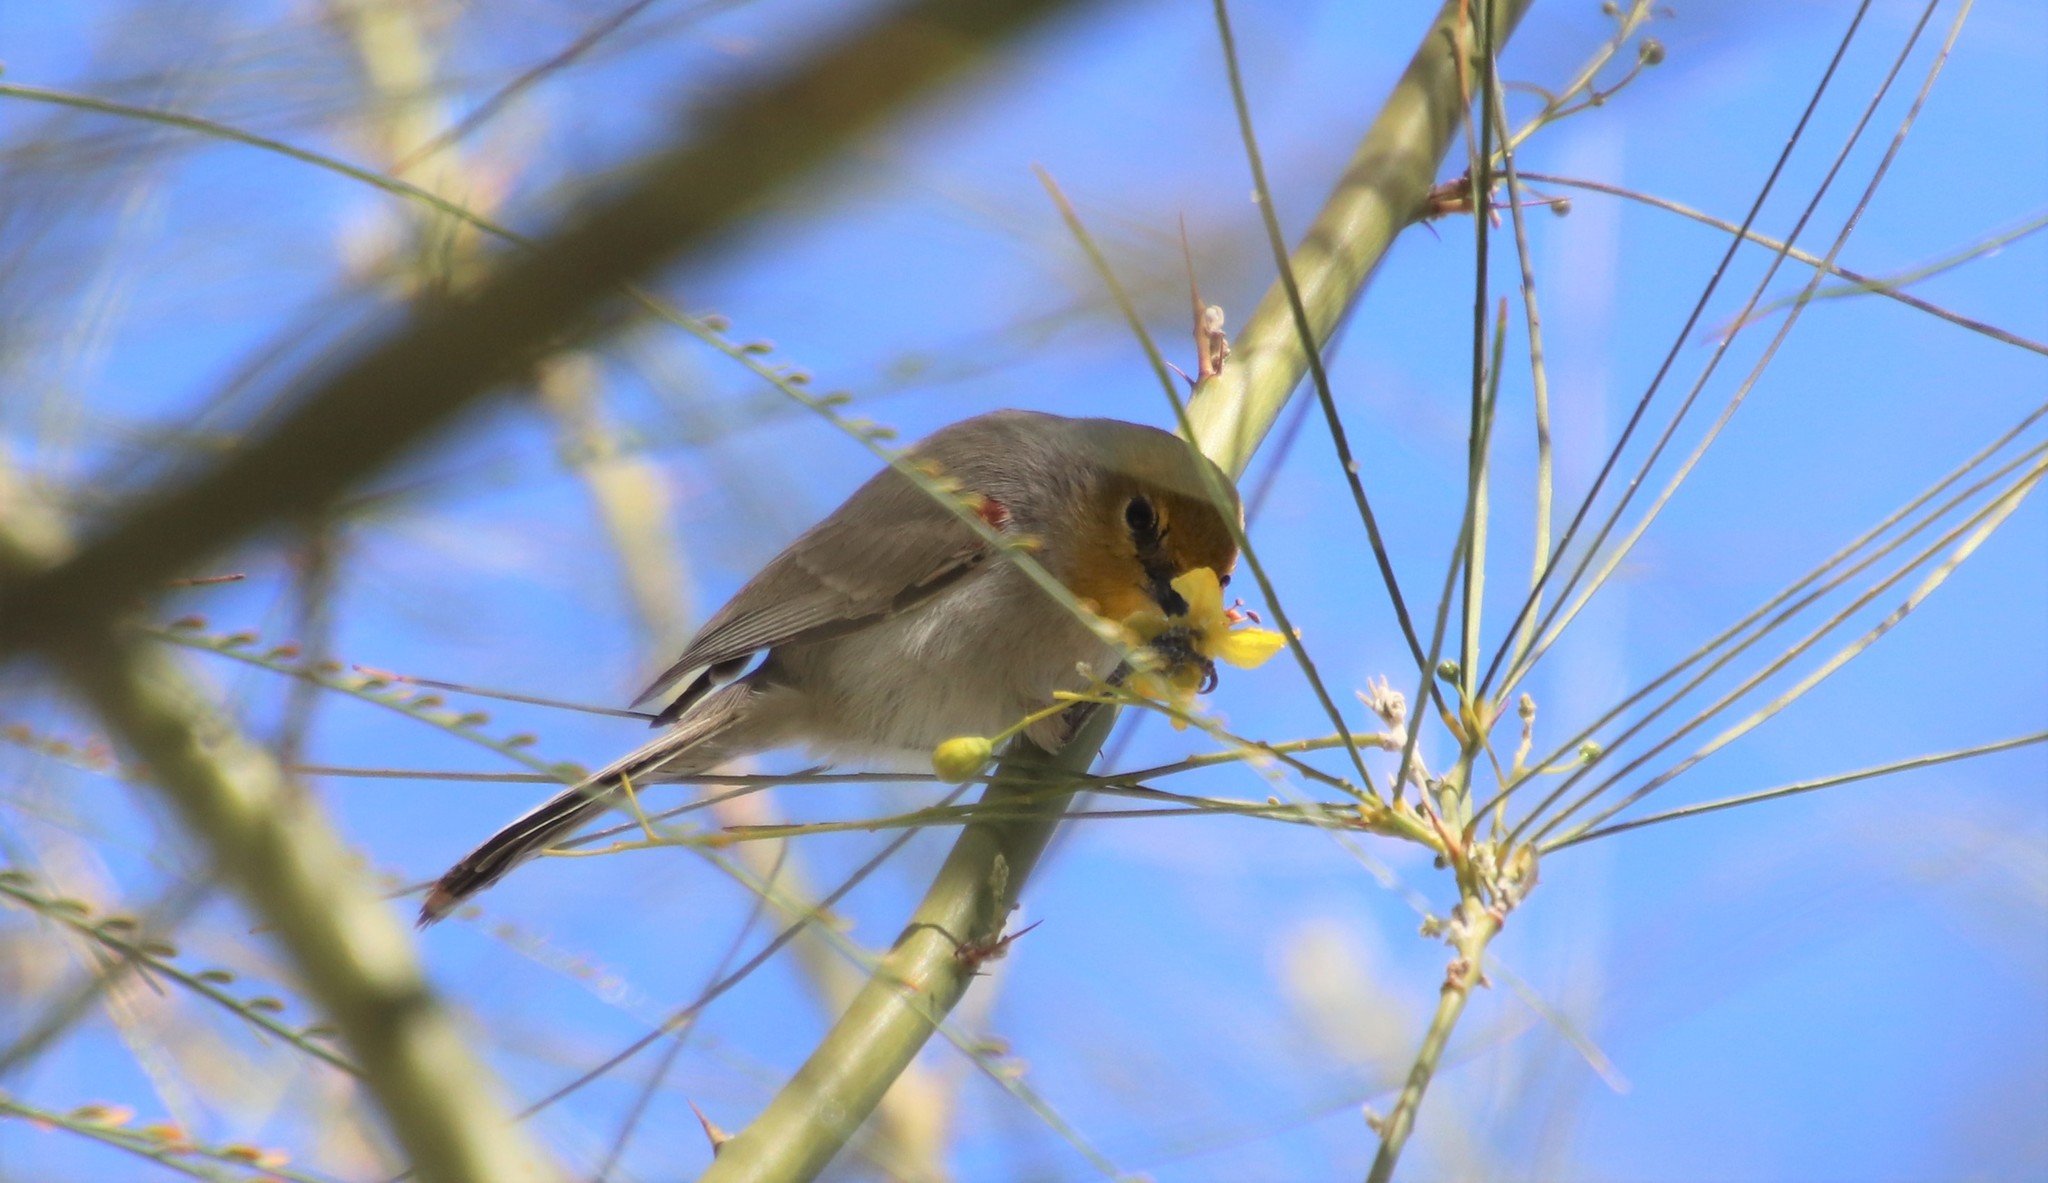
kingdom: Animalia
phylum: Chordata
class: Aves
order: Passeriformes
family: Remizidae
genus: Auriparus
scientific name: Auriparus flaviceps
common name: Verdin
